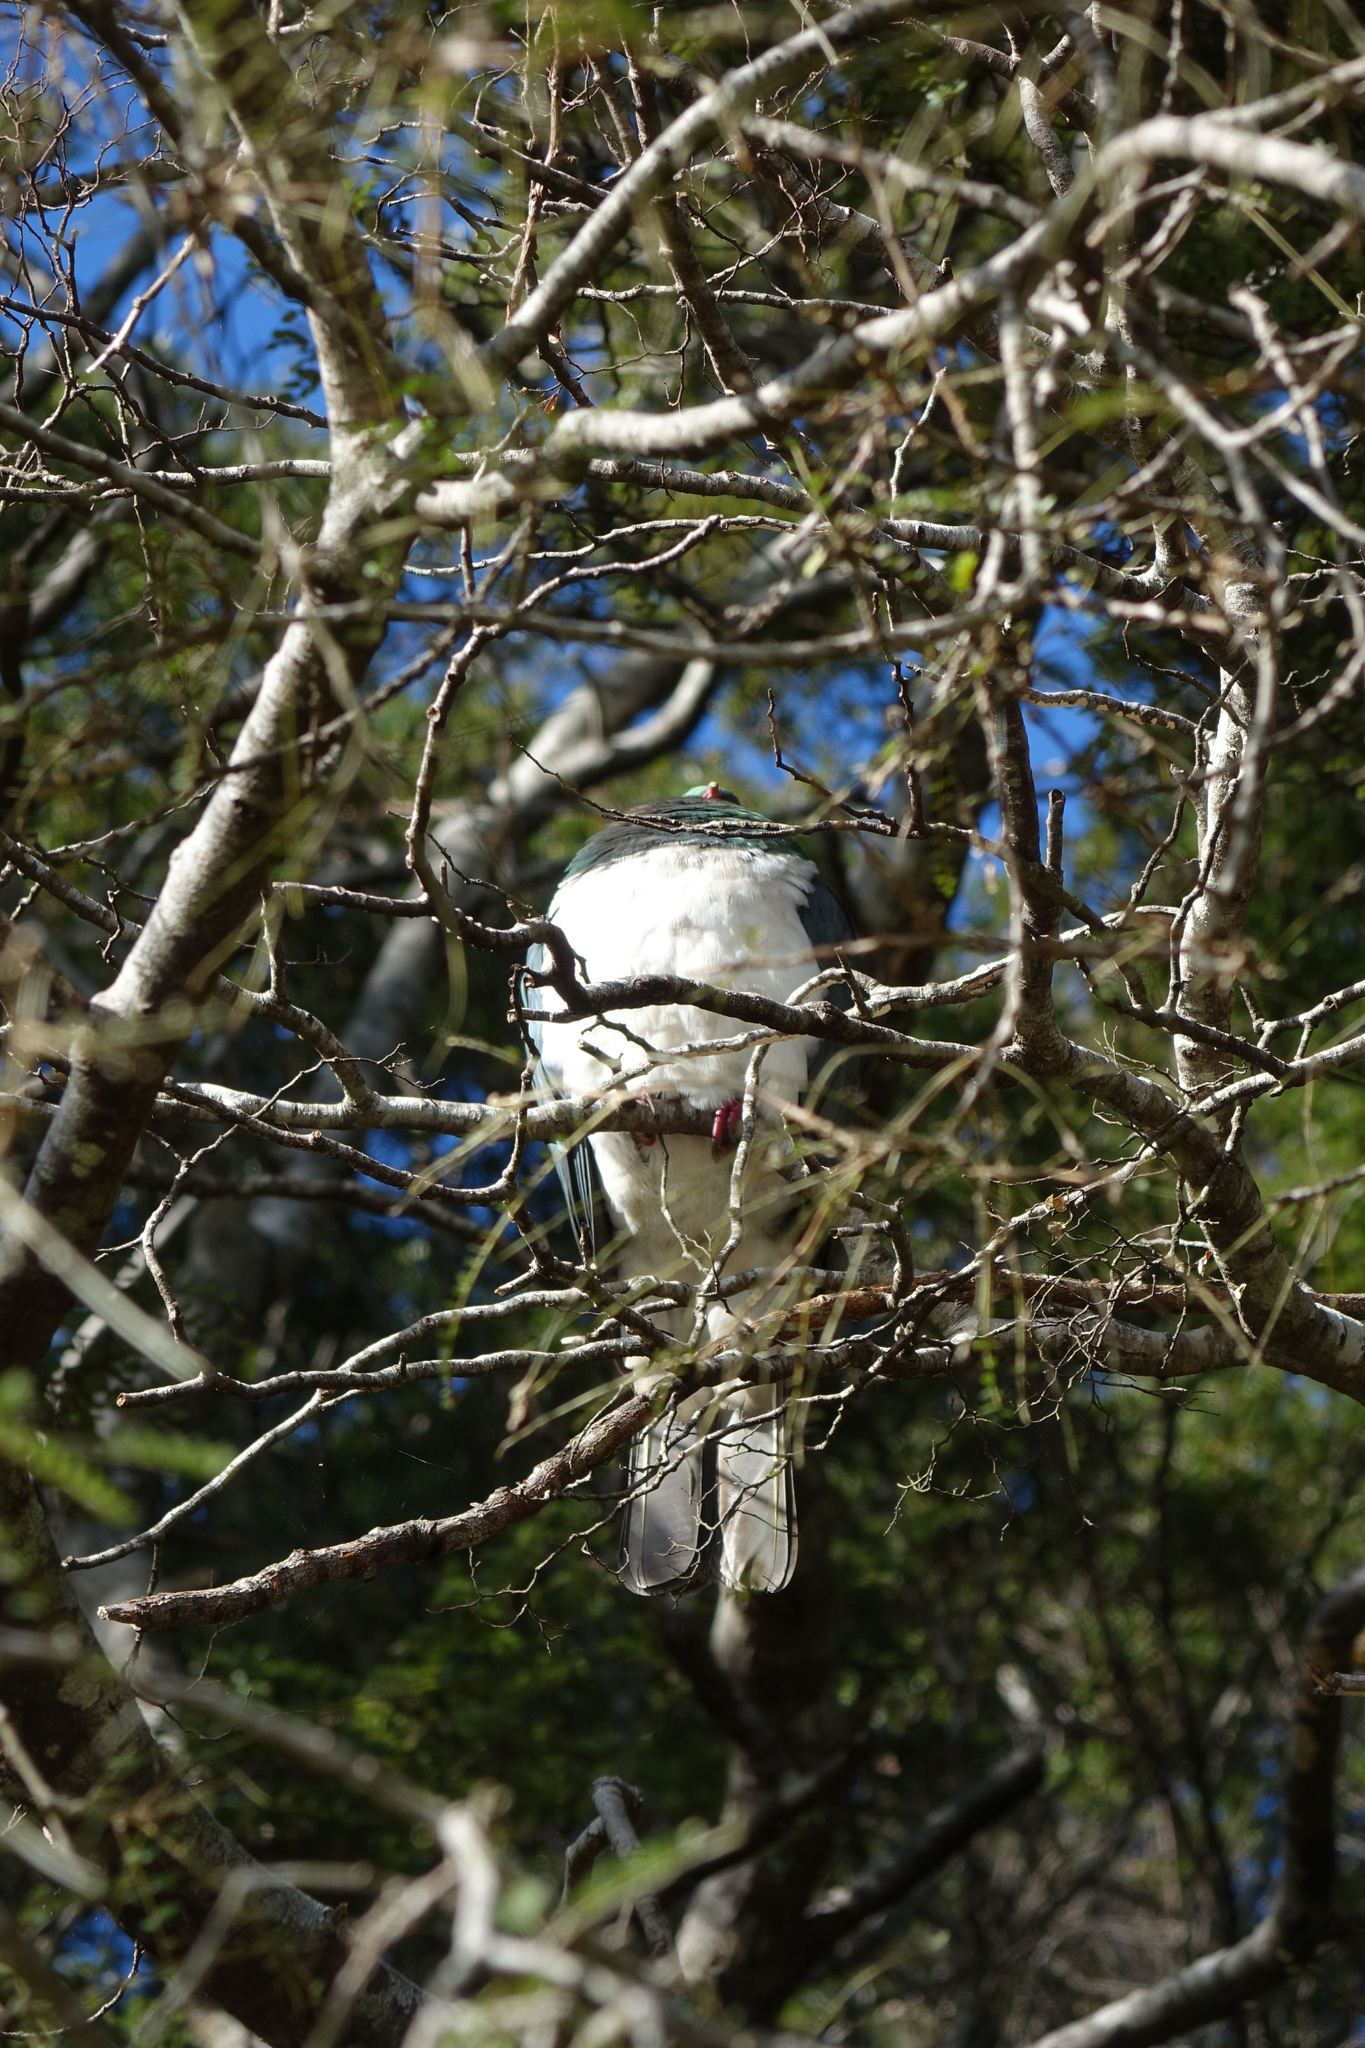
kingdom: Animalia
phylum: Chordata
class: Aves
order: Columbiformes
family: Columbidae
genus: Hemiphaga
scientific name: Hemiphaga novaeseelandiae
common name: New zealand pigeon
